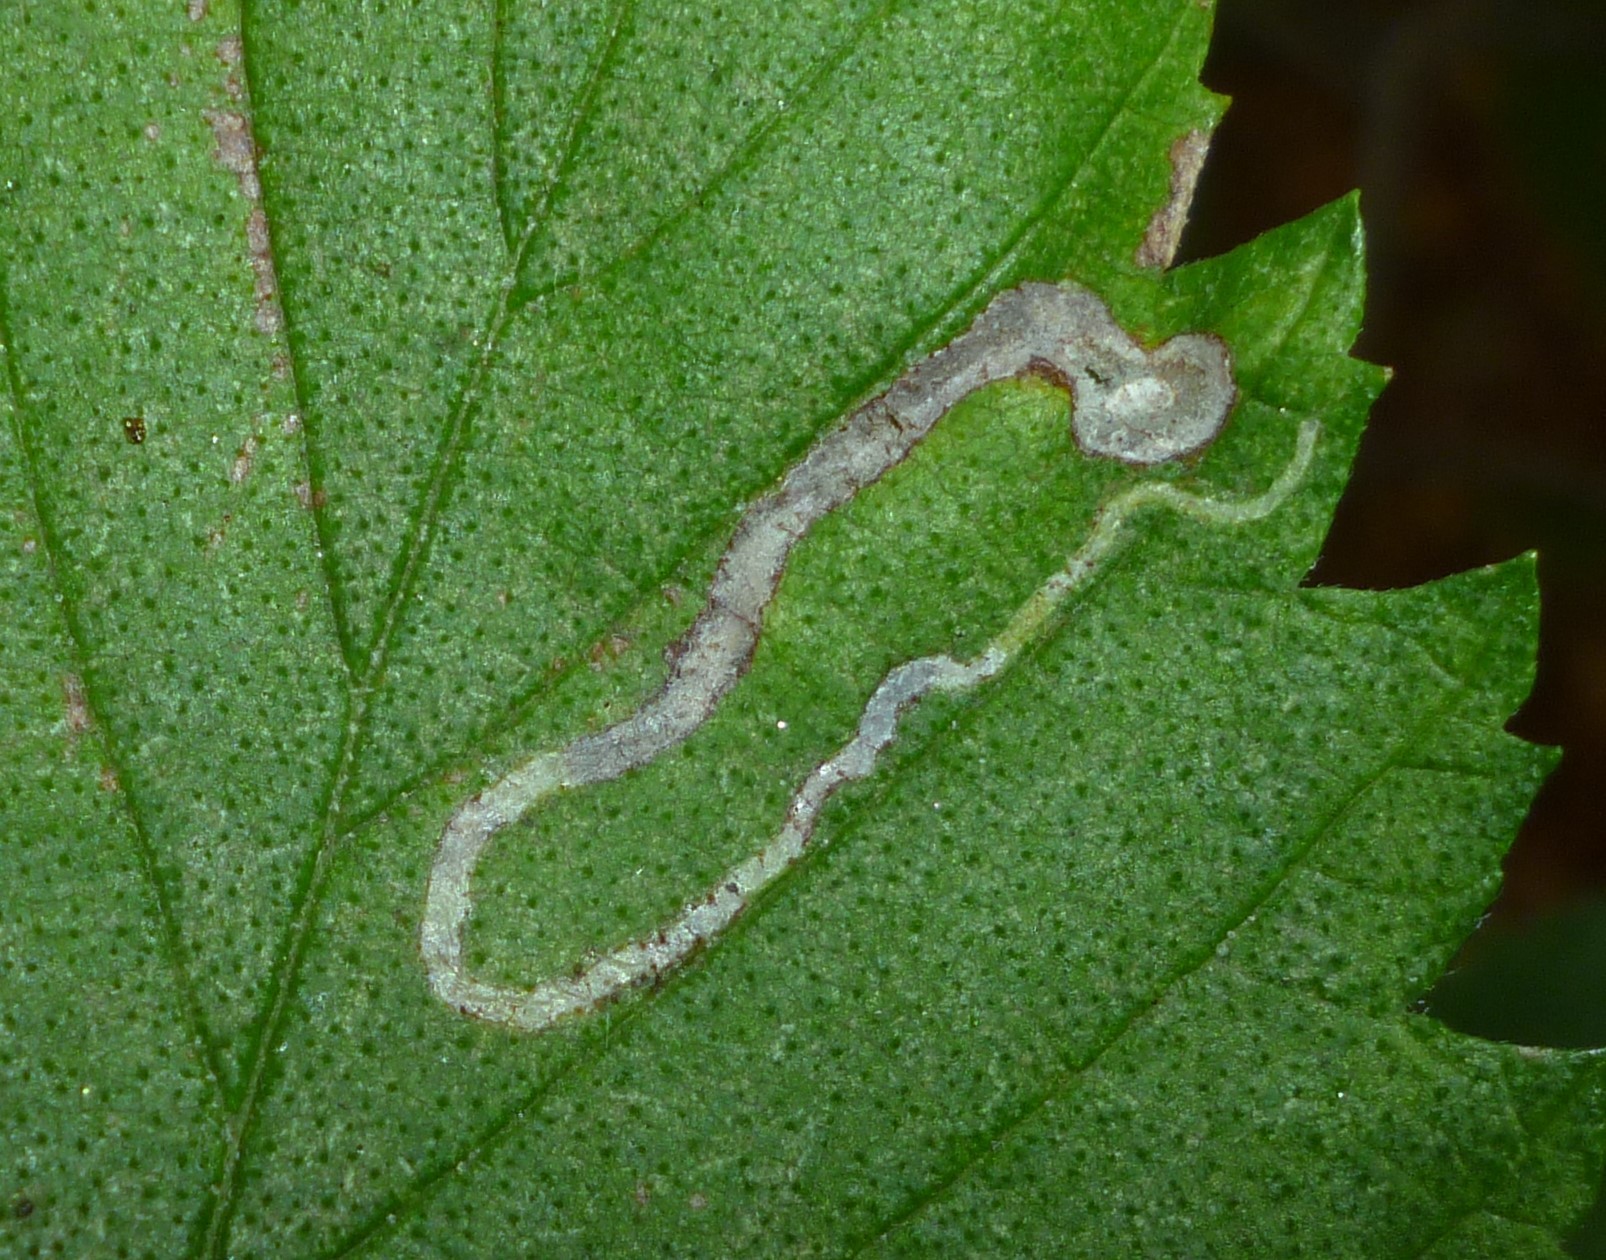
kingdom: Animalia
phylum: Arthropoda
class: Insecta
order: Diptera
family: Agromyzidae
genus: Agromyza
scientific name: Agromyza aristata
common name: Elm agromyzid leafminer
